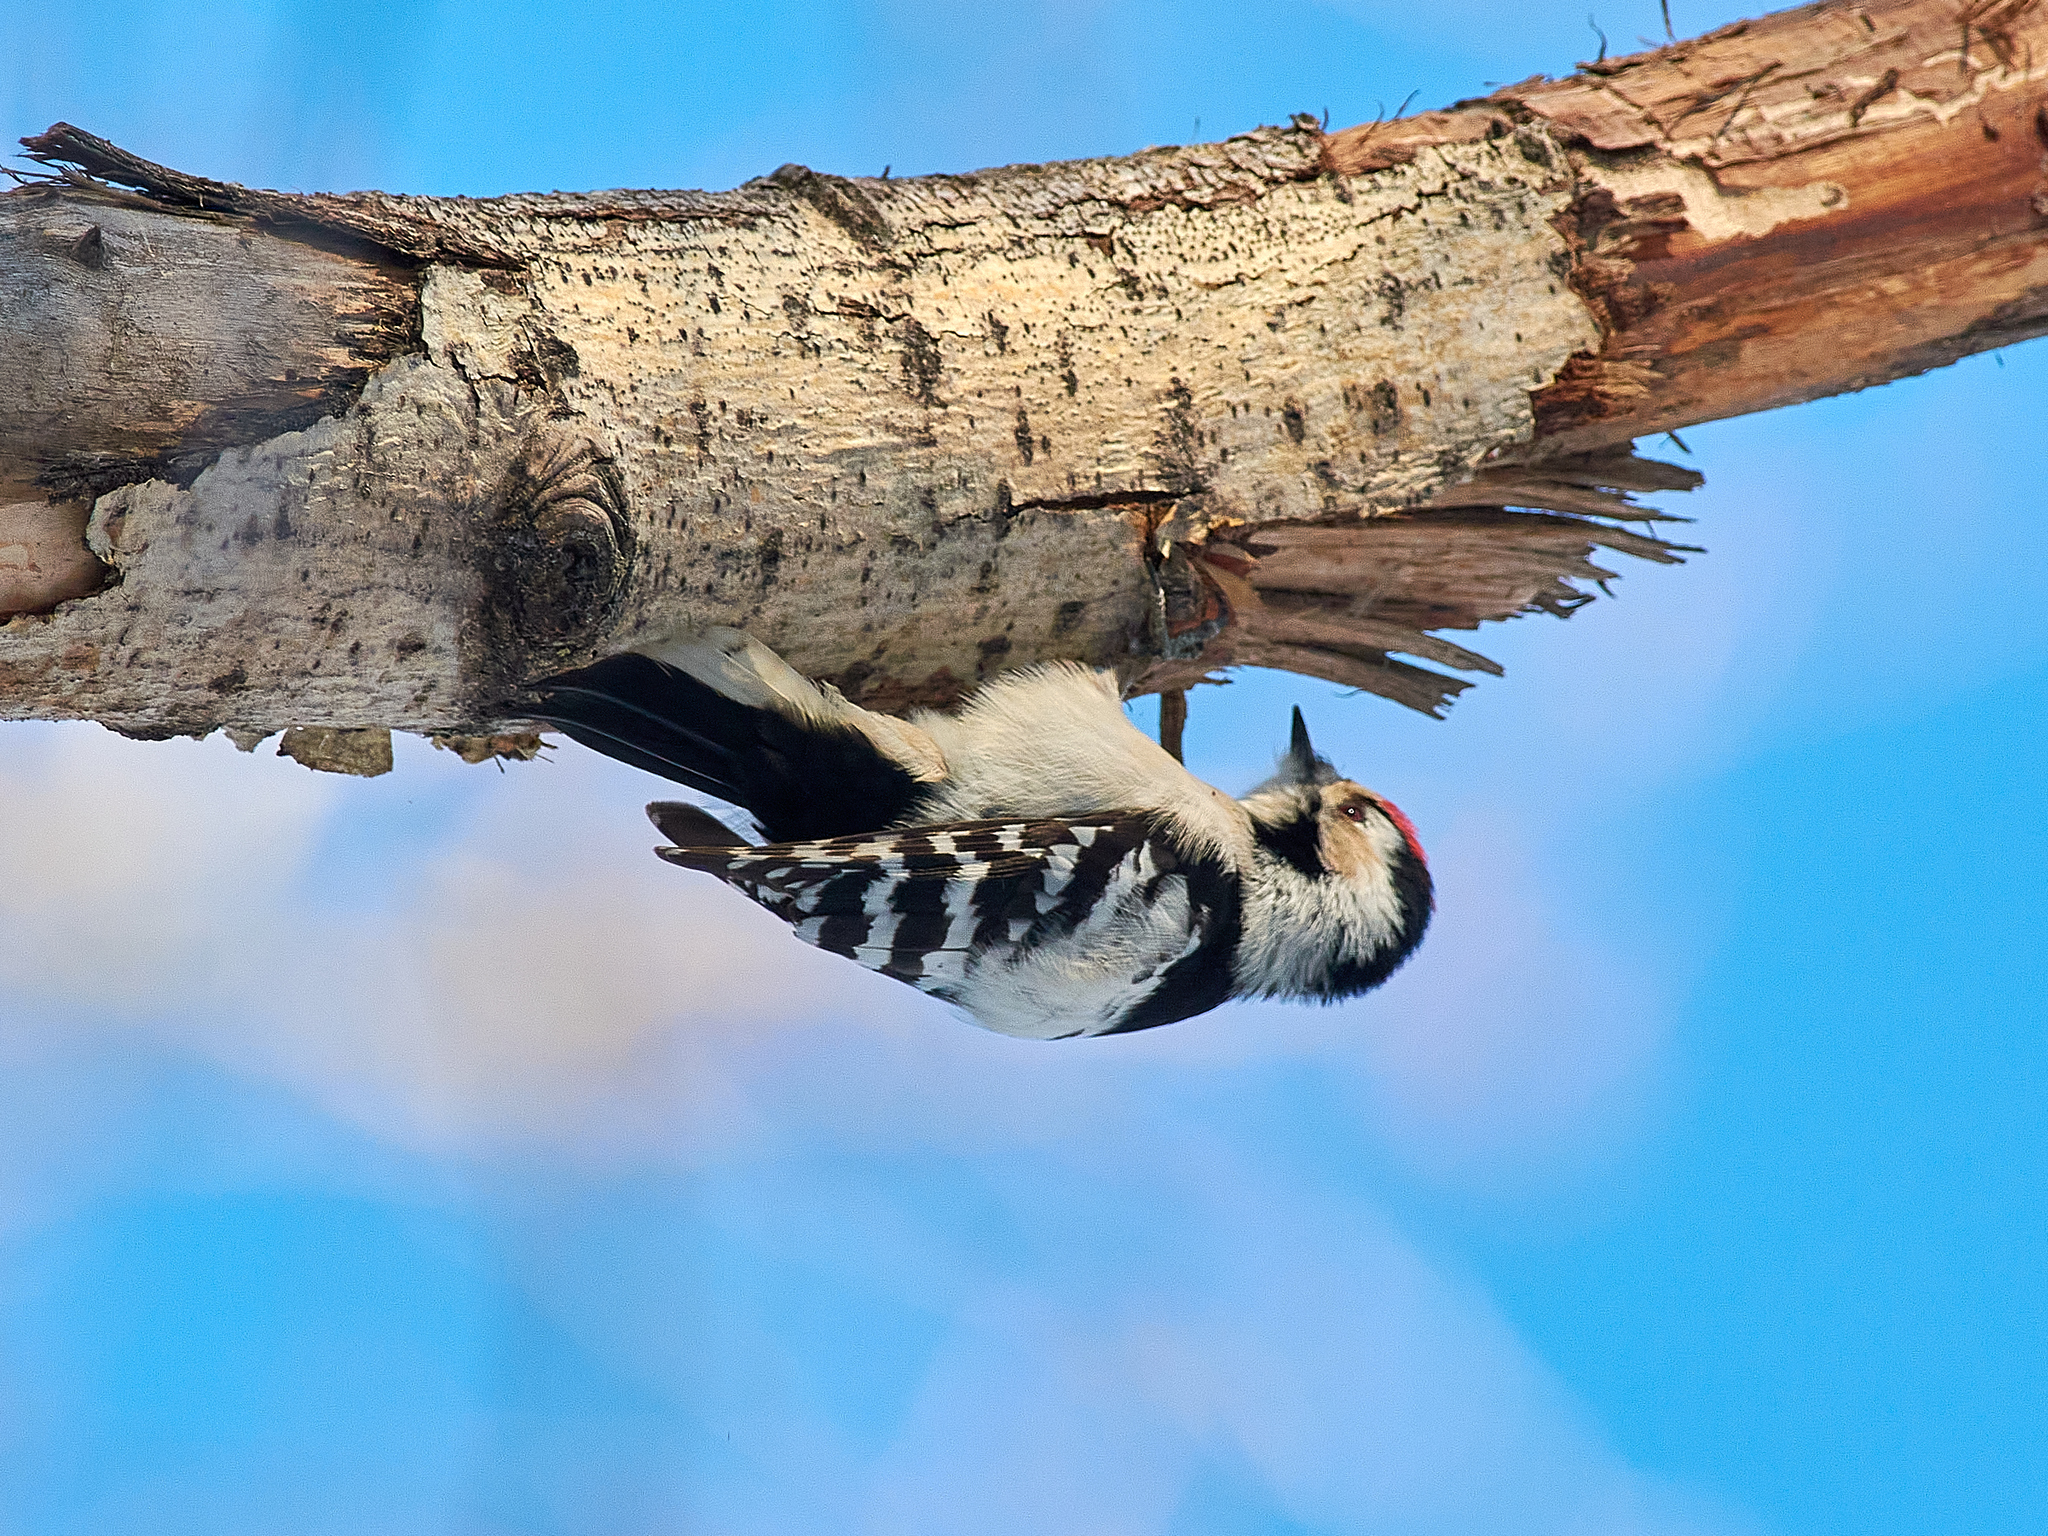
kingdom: Animalia
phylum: Chordata
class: Aves
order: Piciformes
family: Picidae
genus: Dryobates
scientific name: Dryobates minor
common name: Lesser spotted woodpecker
